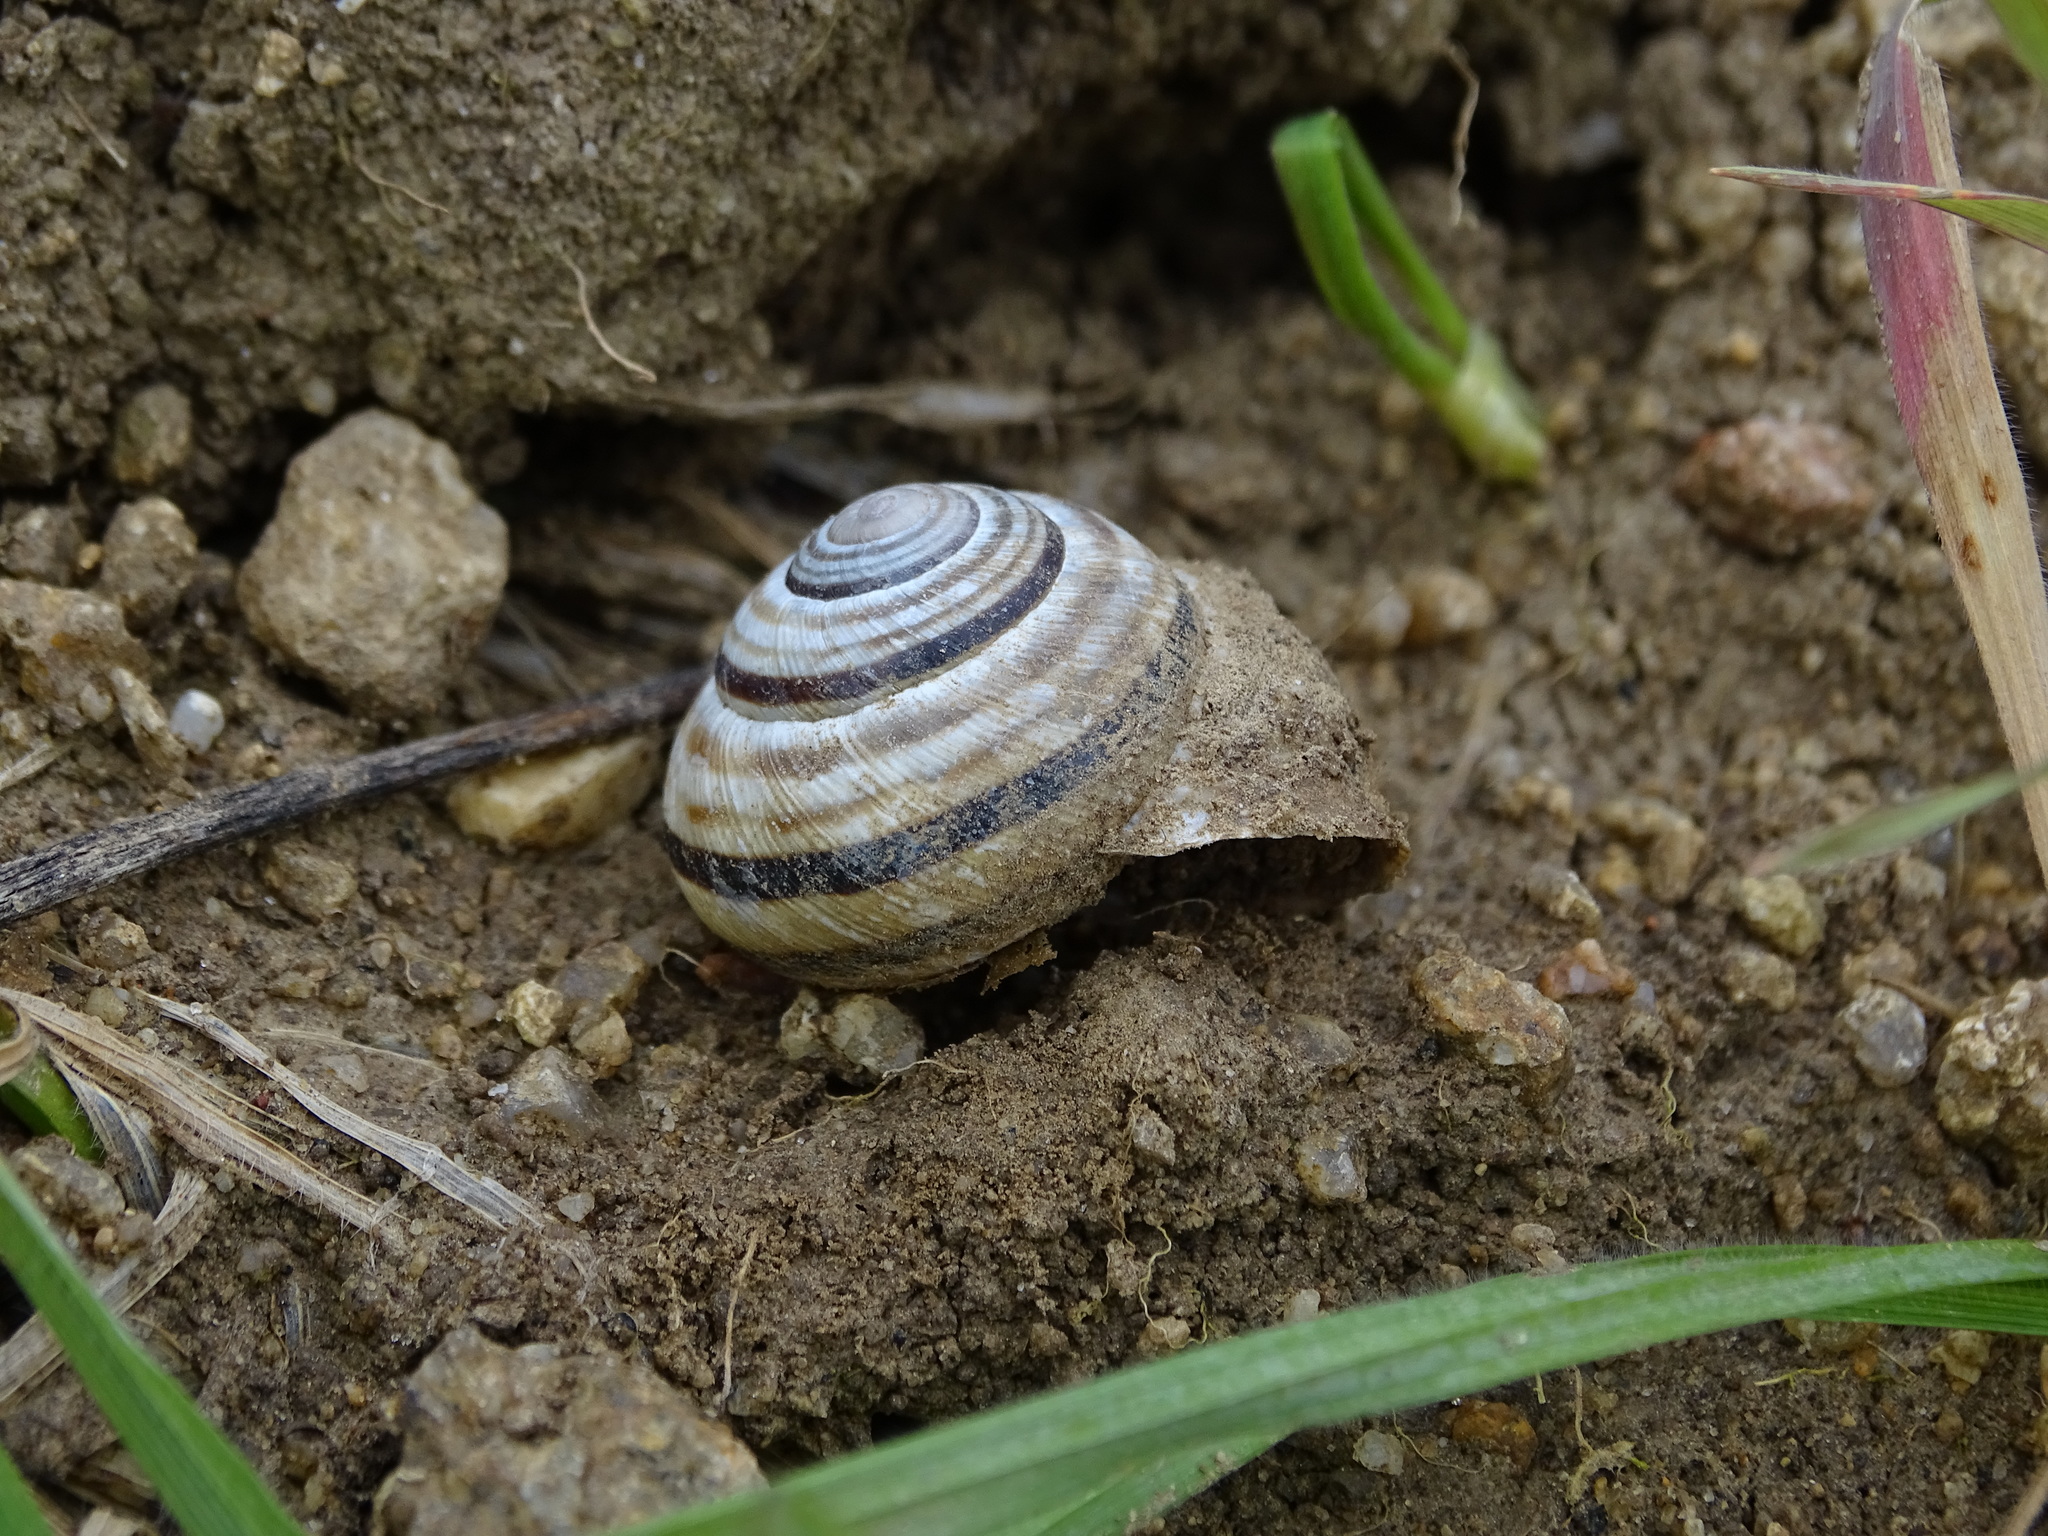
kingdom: Animalia
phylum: Mollusca
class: Gastropoda
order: Stylommatophora
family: Helicidae
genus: Caucasotachea
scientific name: Caucasotachea vindobonensis
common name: European helicid land snail
